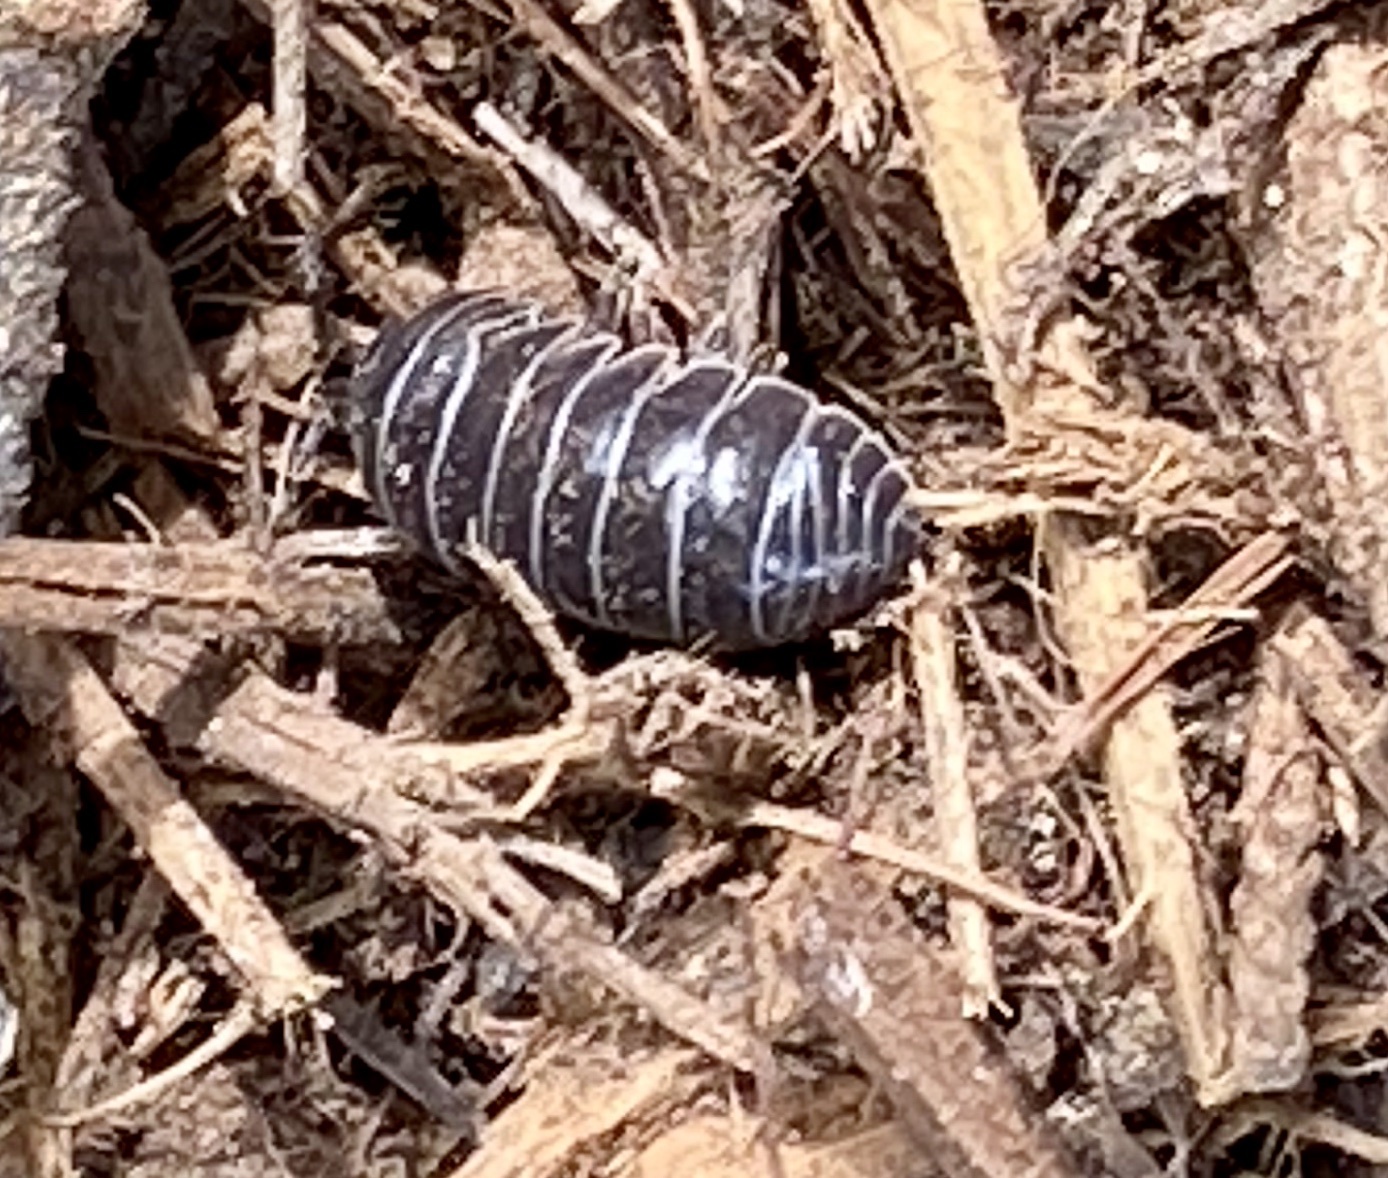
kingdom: Animalia
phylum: Arthropoda
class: Malacostraca
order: Isopoda
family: Armadillidiidae
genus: Armadillidium
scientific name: Armadillidium vulgare
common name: Common pill woodlouse
